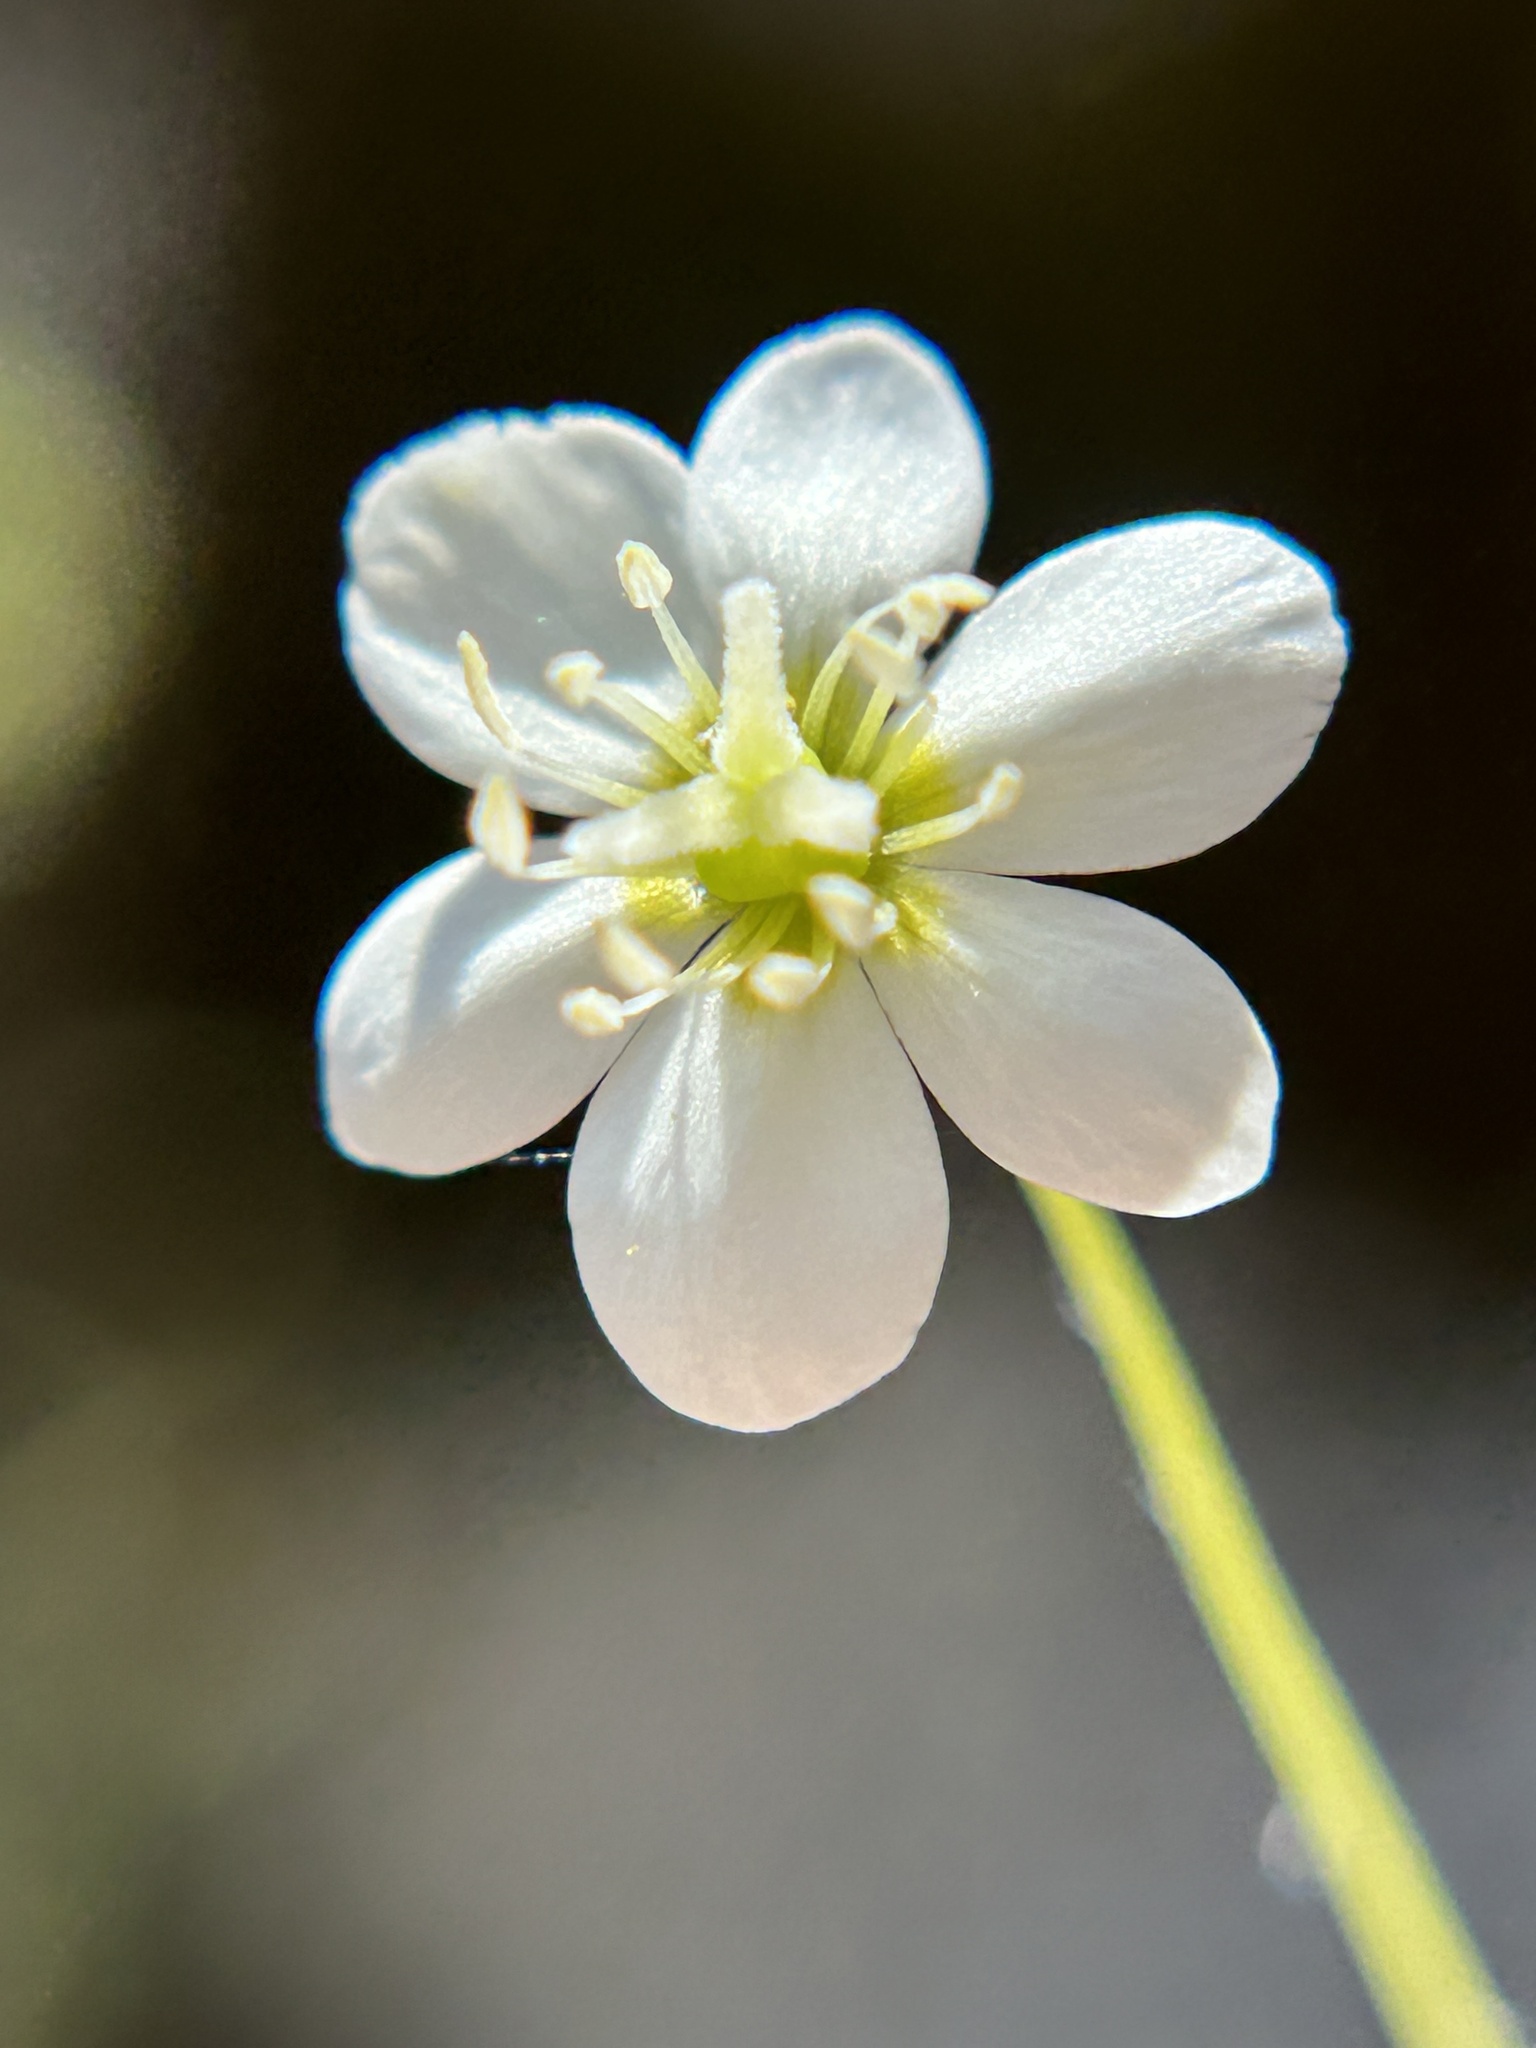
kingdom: Plantae
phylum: Tracheophyta
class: Magnoliopsida
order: Ranunculales
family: Papaveraceae
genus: Platystigma
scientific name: Platystigma lineare
